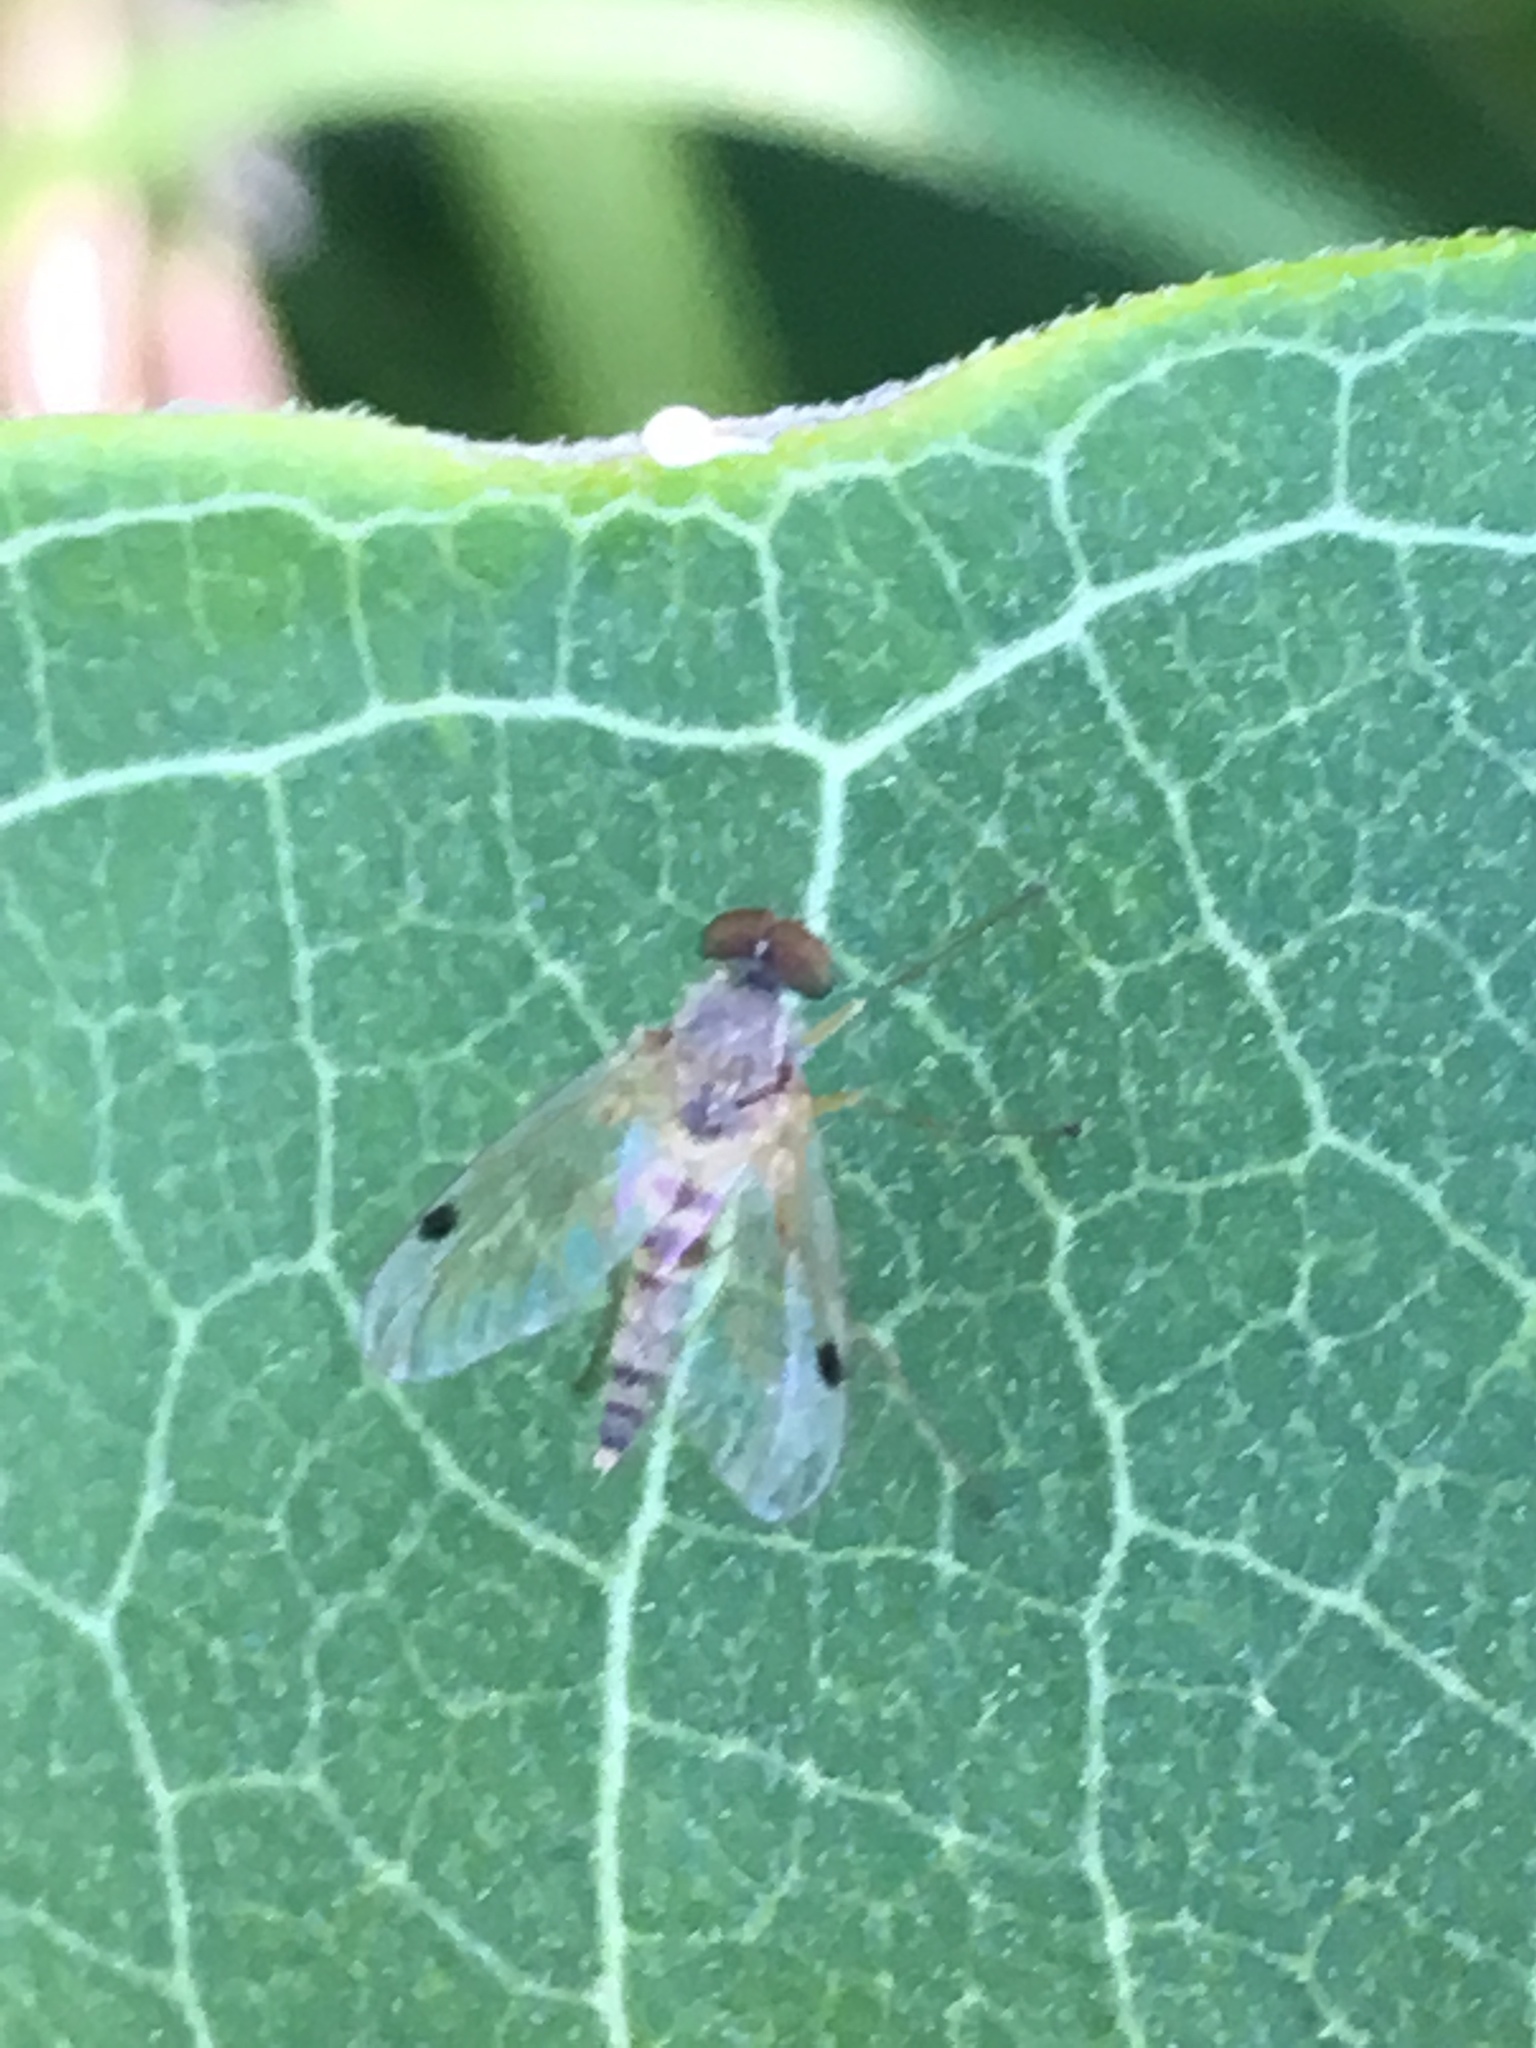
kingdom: Animalia
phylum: Arthropoda
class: Insecta
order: Diptera
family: Rhagionidae
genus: Chrysopilus
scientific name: Chrysopilus modestus
